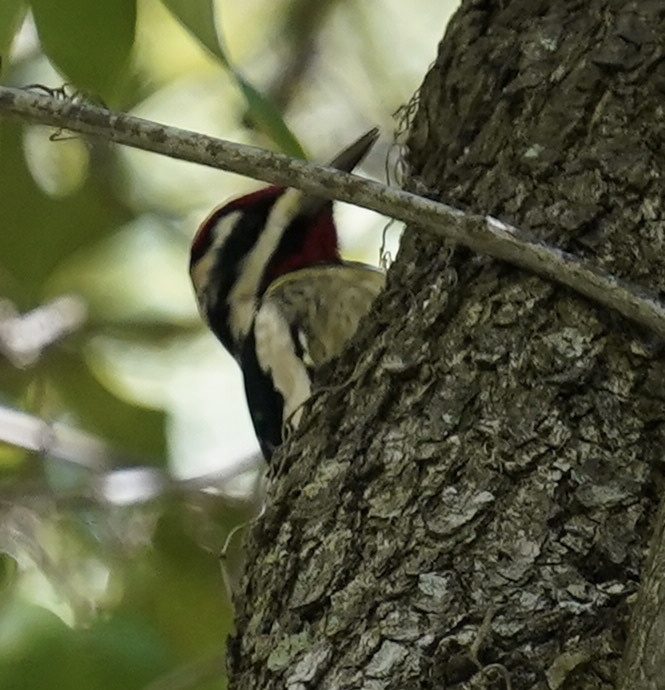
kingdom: Animalia
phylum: Chordata
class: Aves
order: Piciformes
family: Picidae
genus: Sphyrapicus
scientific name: Sphyrapicus varius
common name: Yellow-bellied sapsucker
